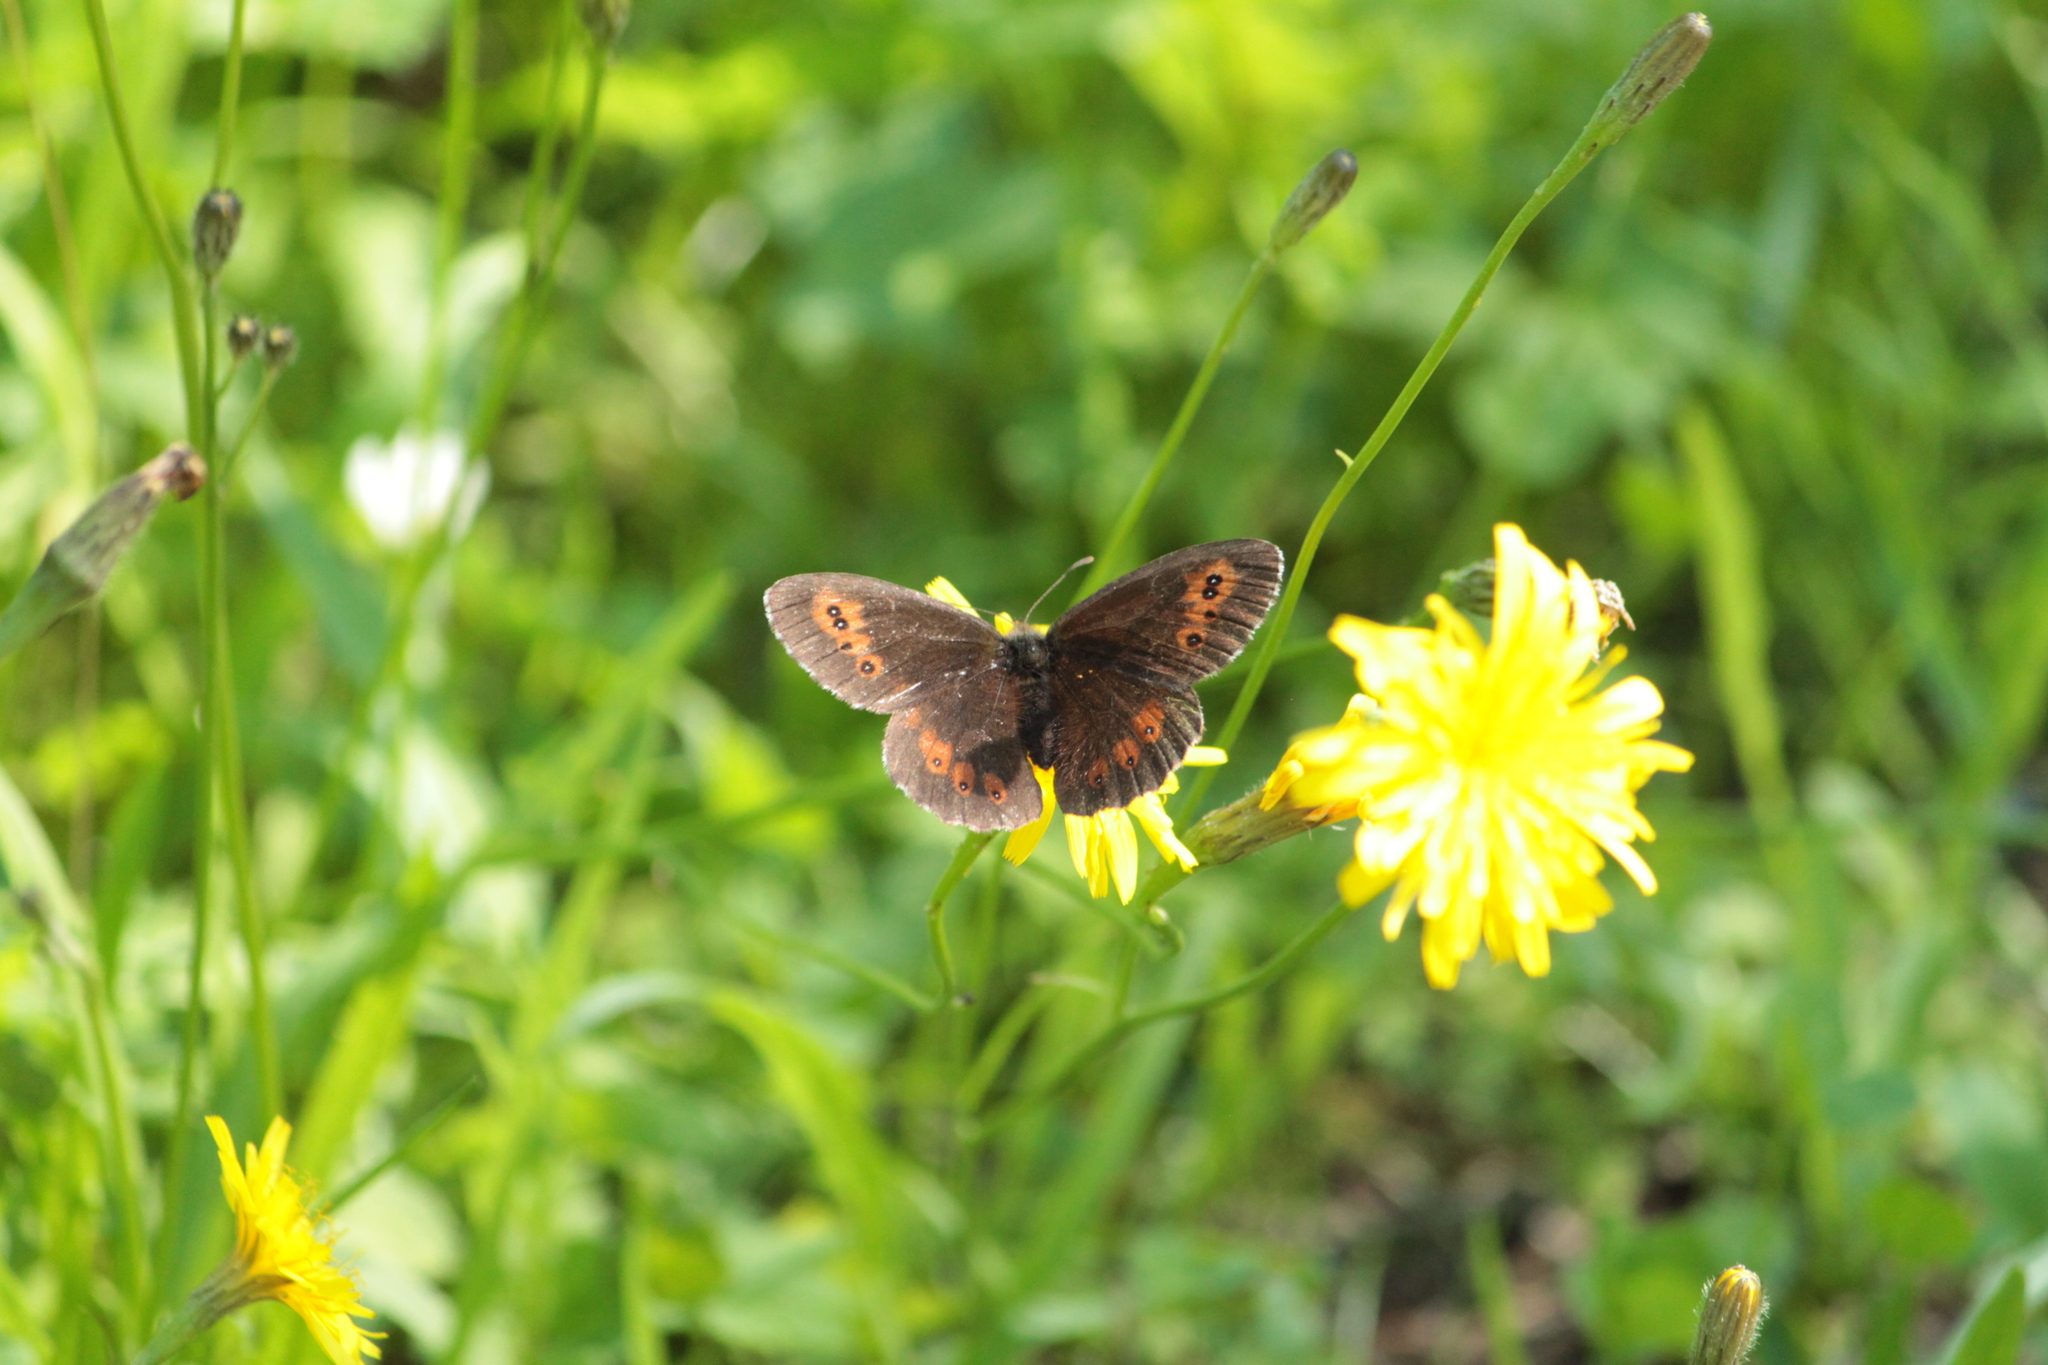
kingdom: Animalia
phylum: Arthropoda
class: Insecta
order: Lepidoptera
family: Nymphalidae
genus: Erebia
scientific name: Erebia ligea
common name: Arran brown
